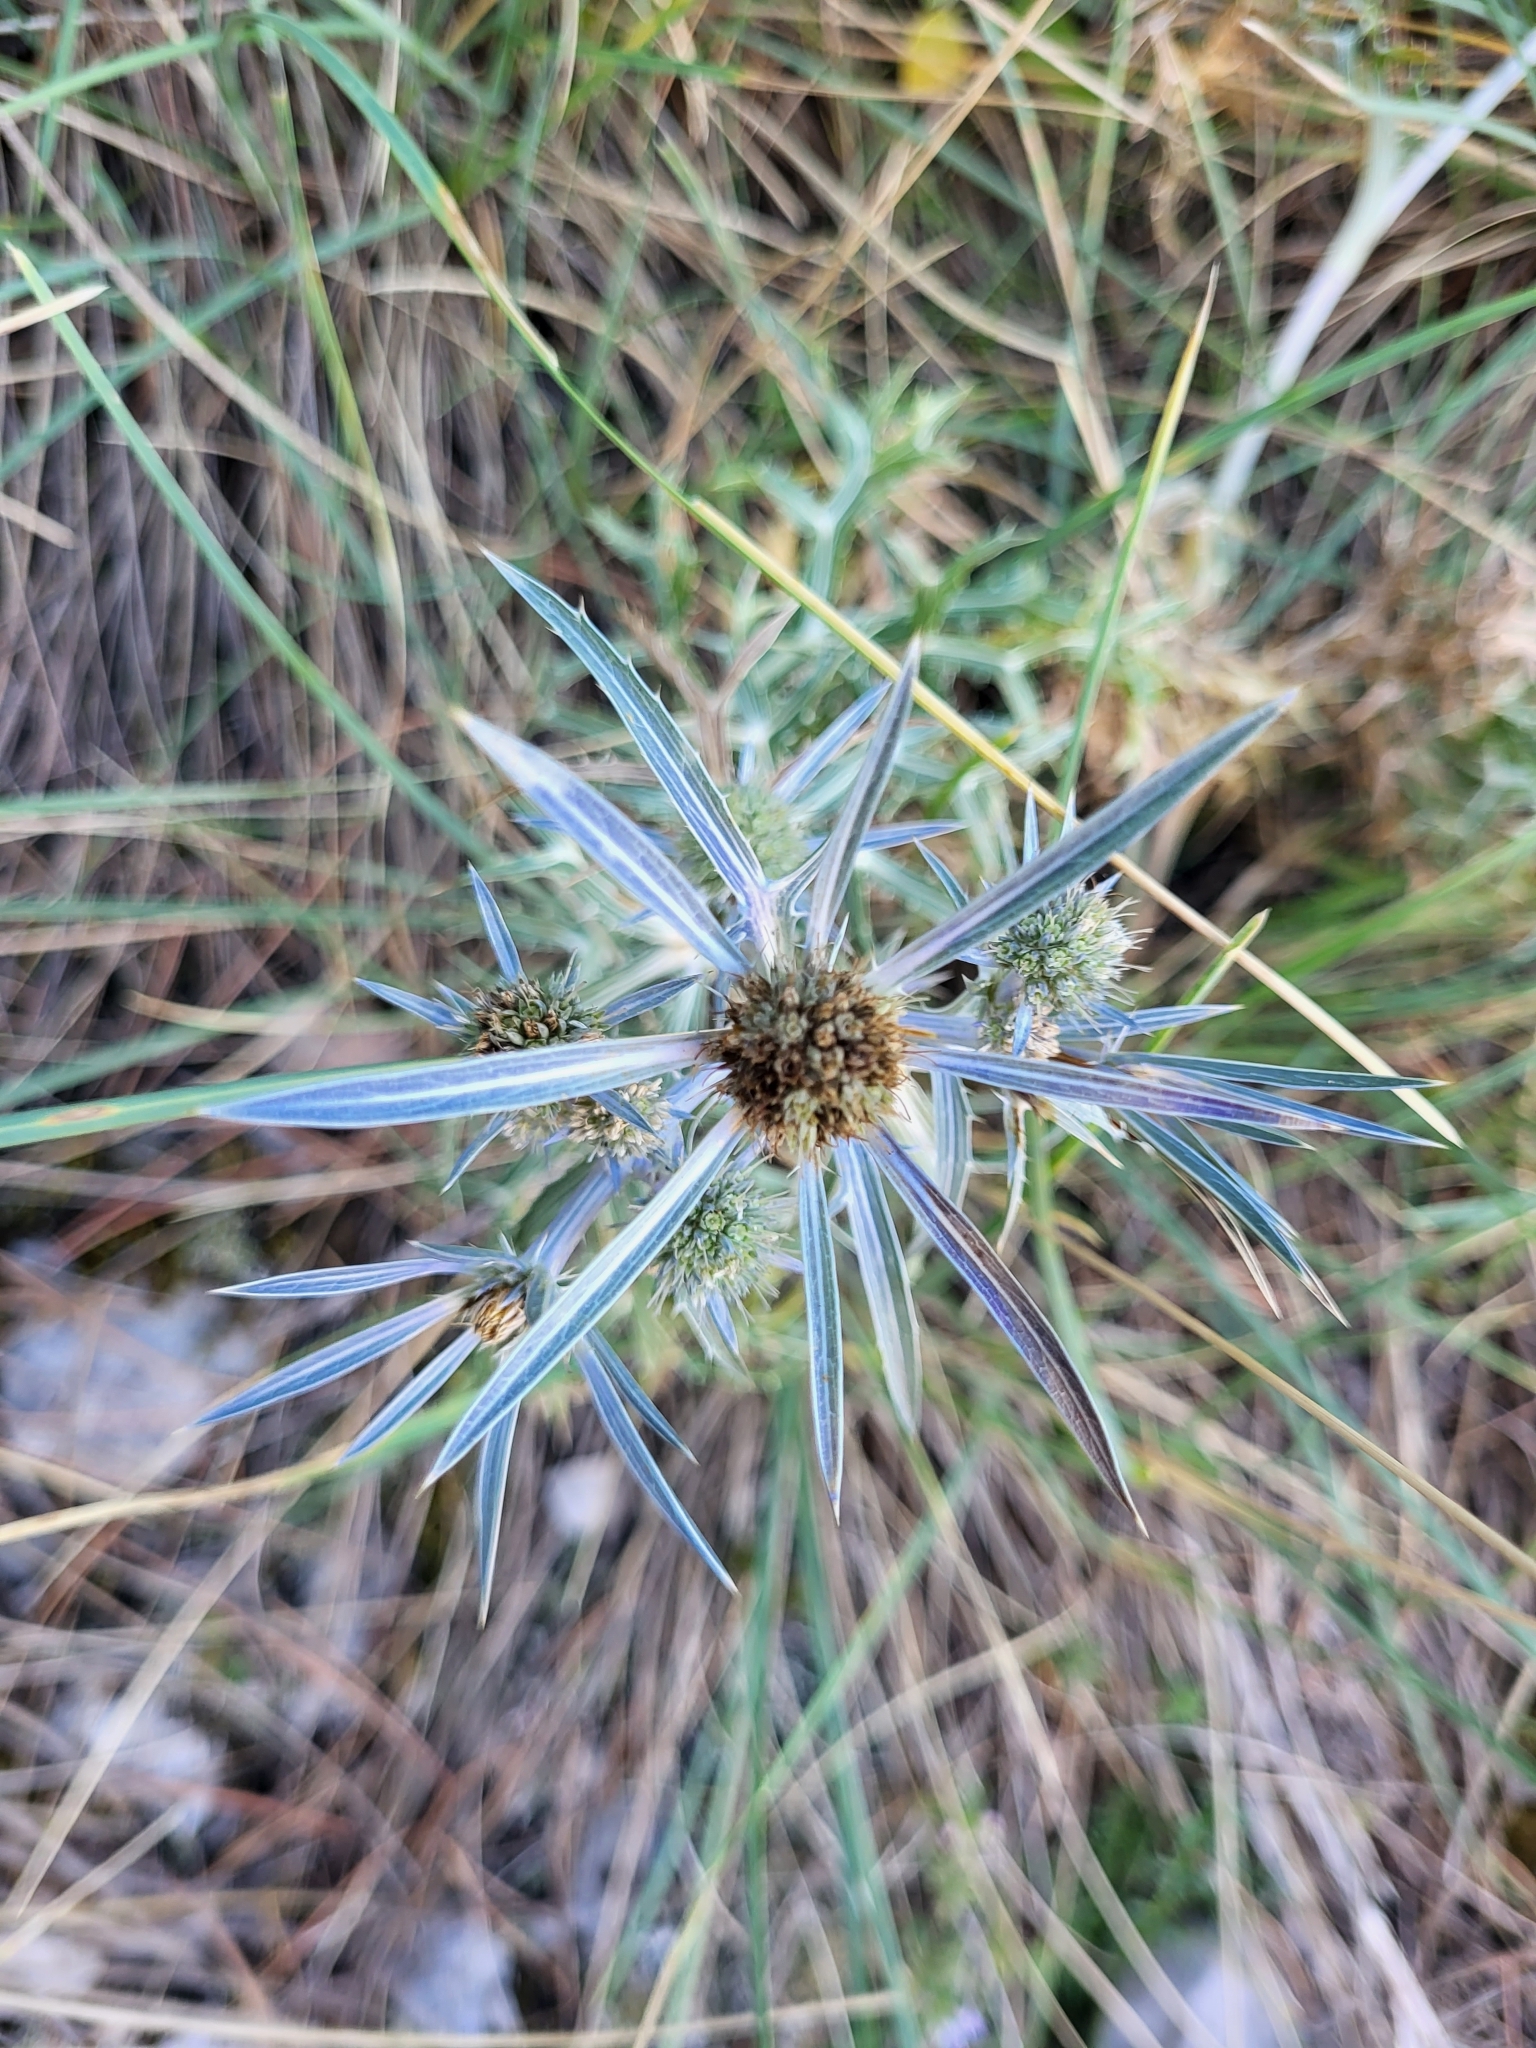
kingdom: Plantae
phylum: Tracheophyta
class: Magnoliopsida
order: Apiales
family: Apiaceae
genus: Eryngium
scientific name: Eryngium amethystinum
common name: Amethyst eryngo
